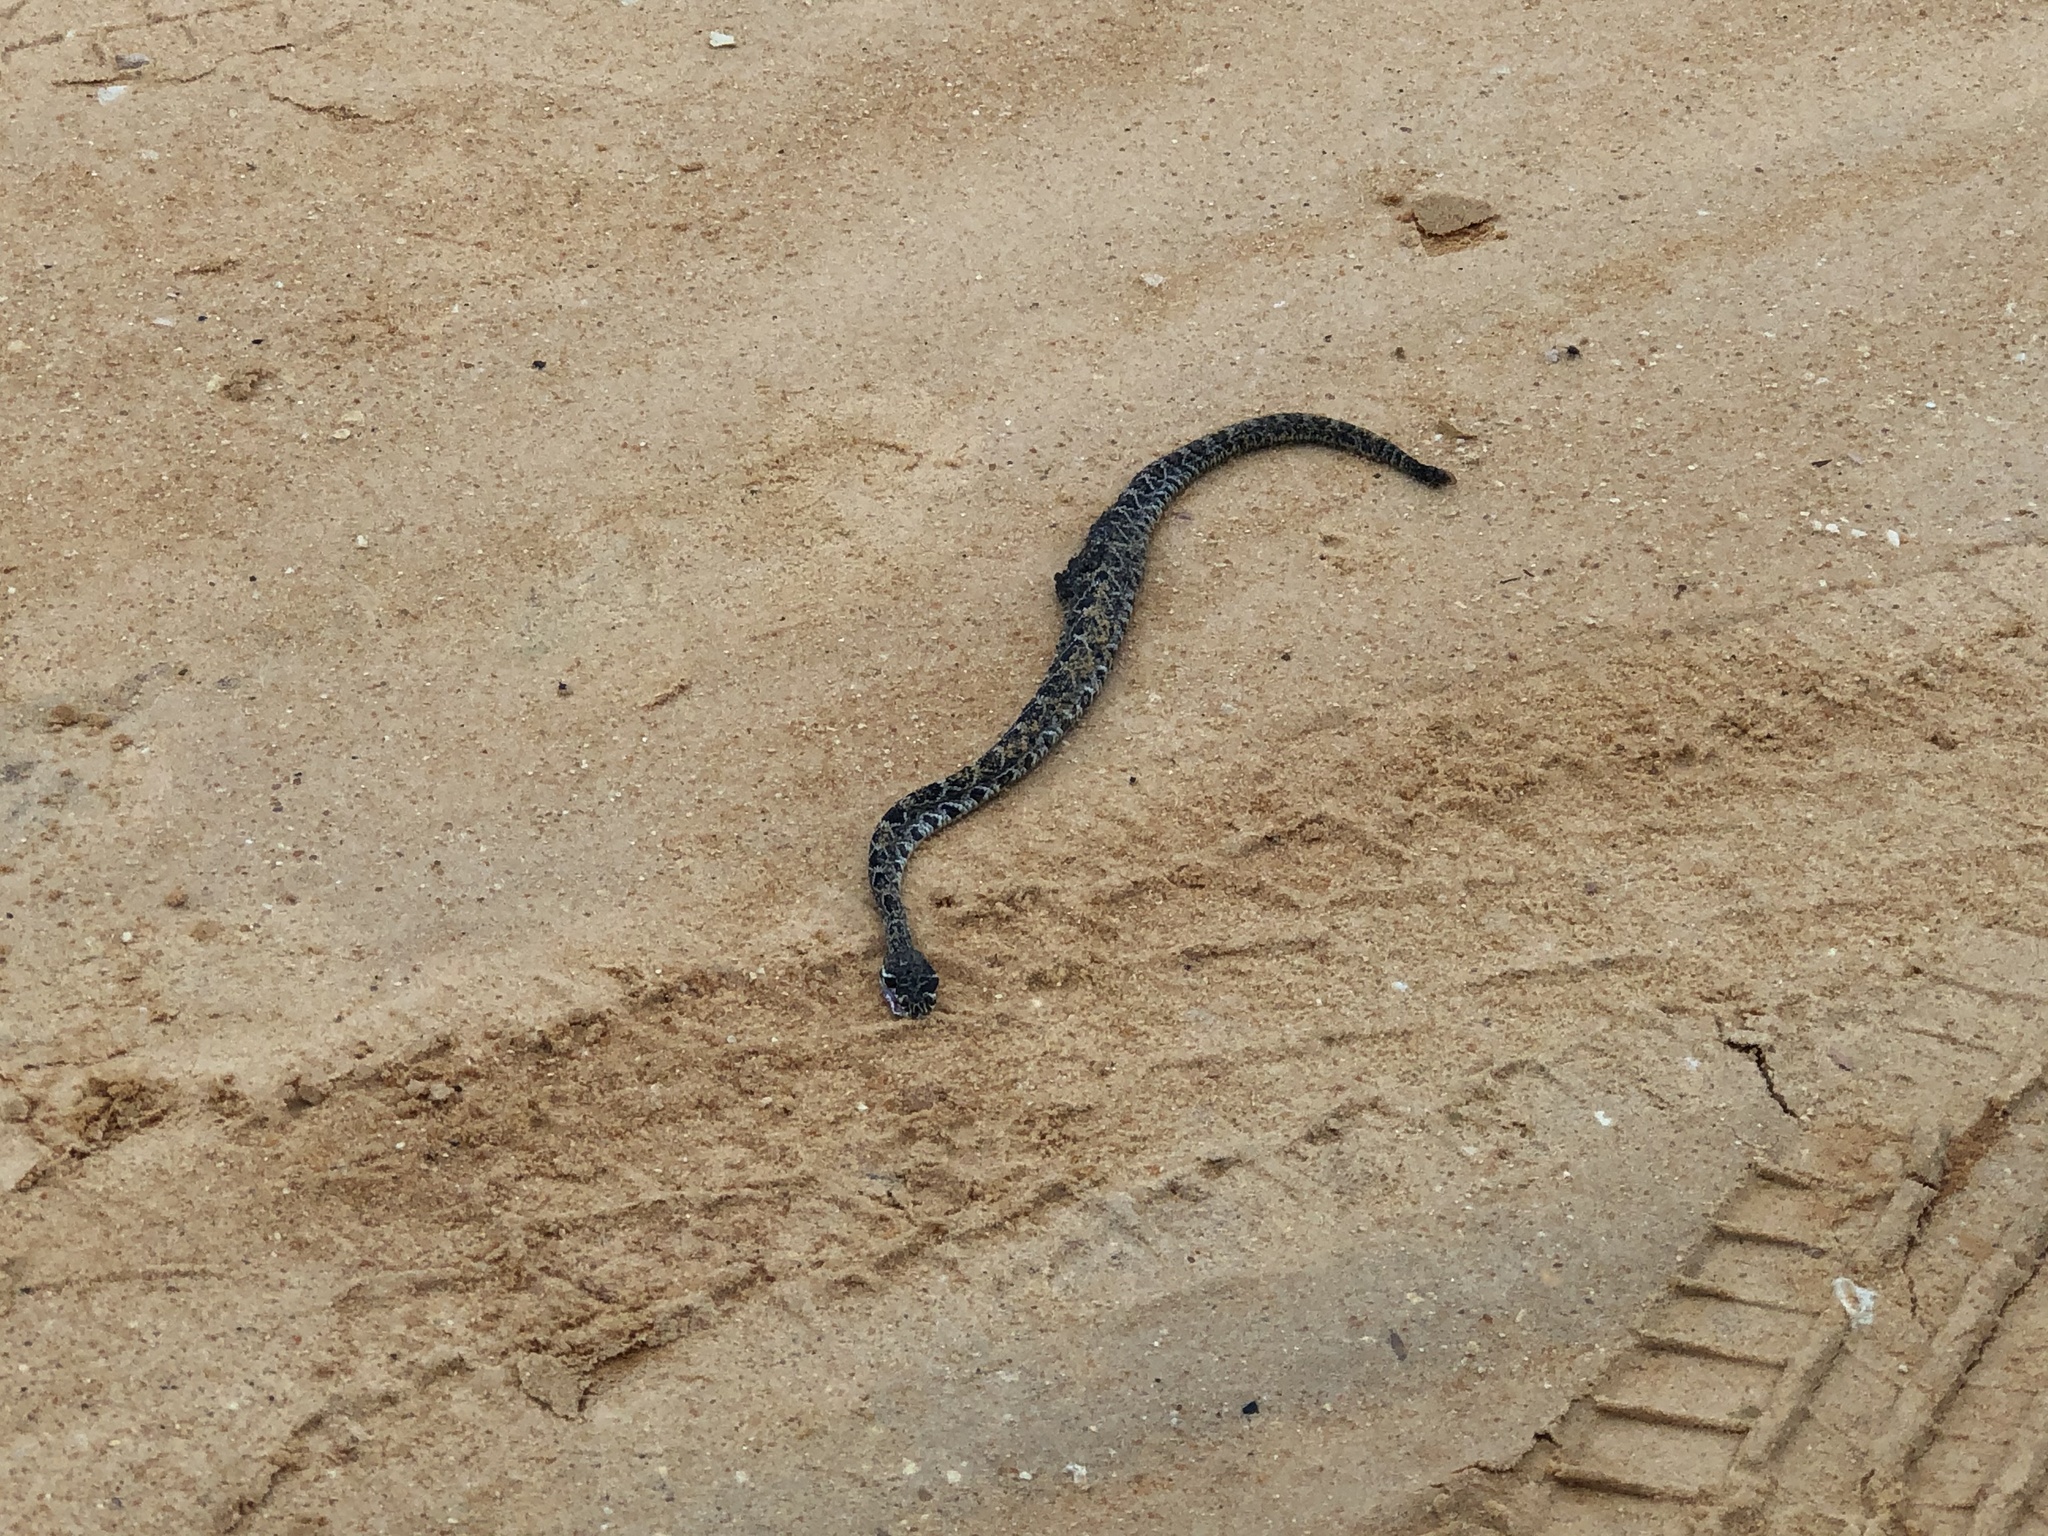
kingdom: Animalia
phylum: Chordata
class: Squamata
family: Viperidae
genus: Crotalus
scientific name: Crotalus adamanteus
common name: Eastern diamondback rattlesnake
